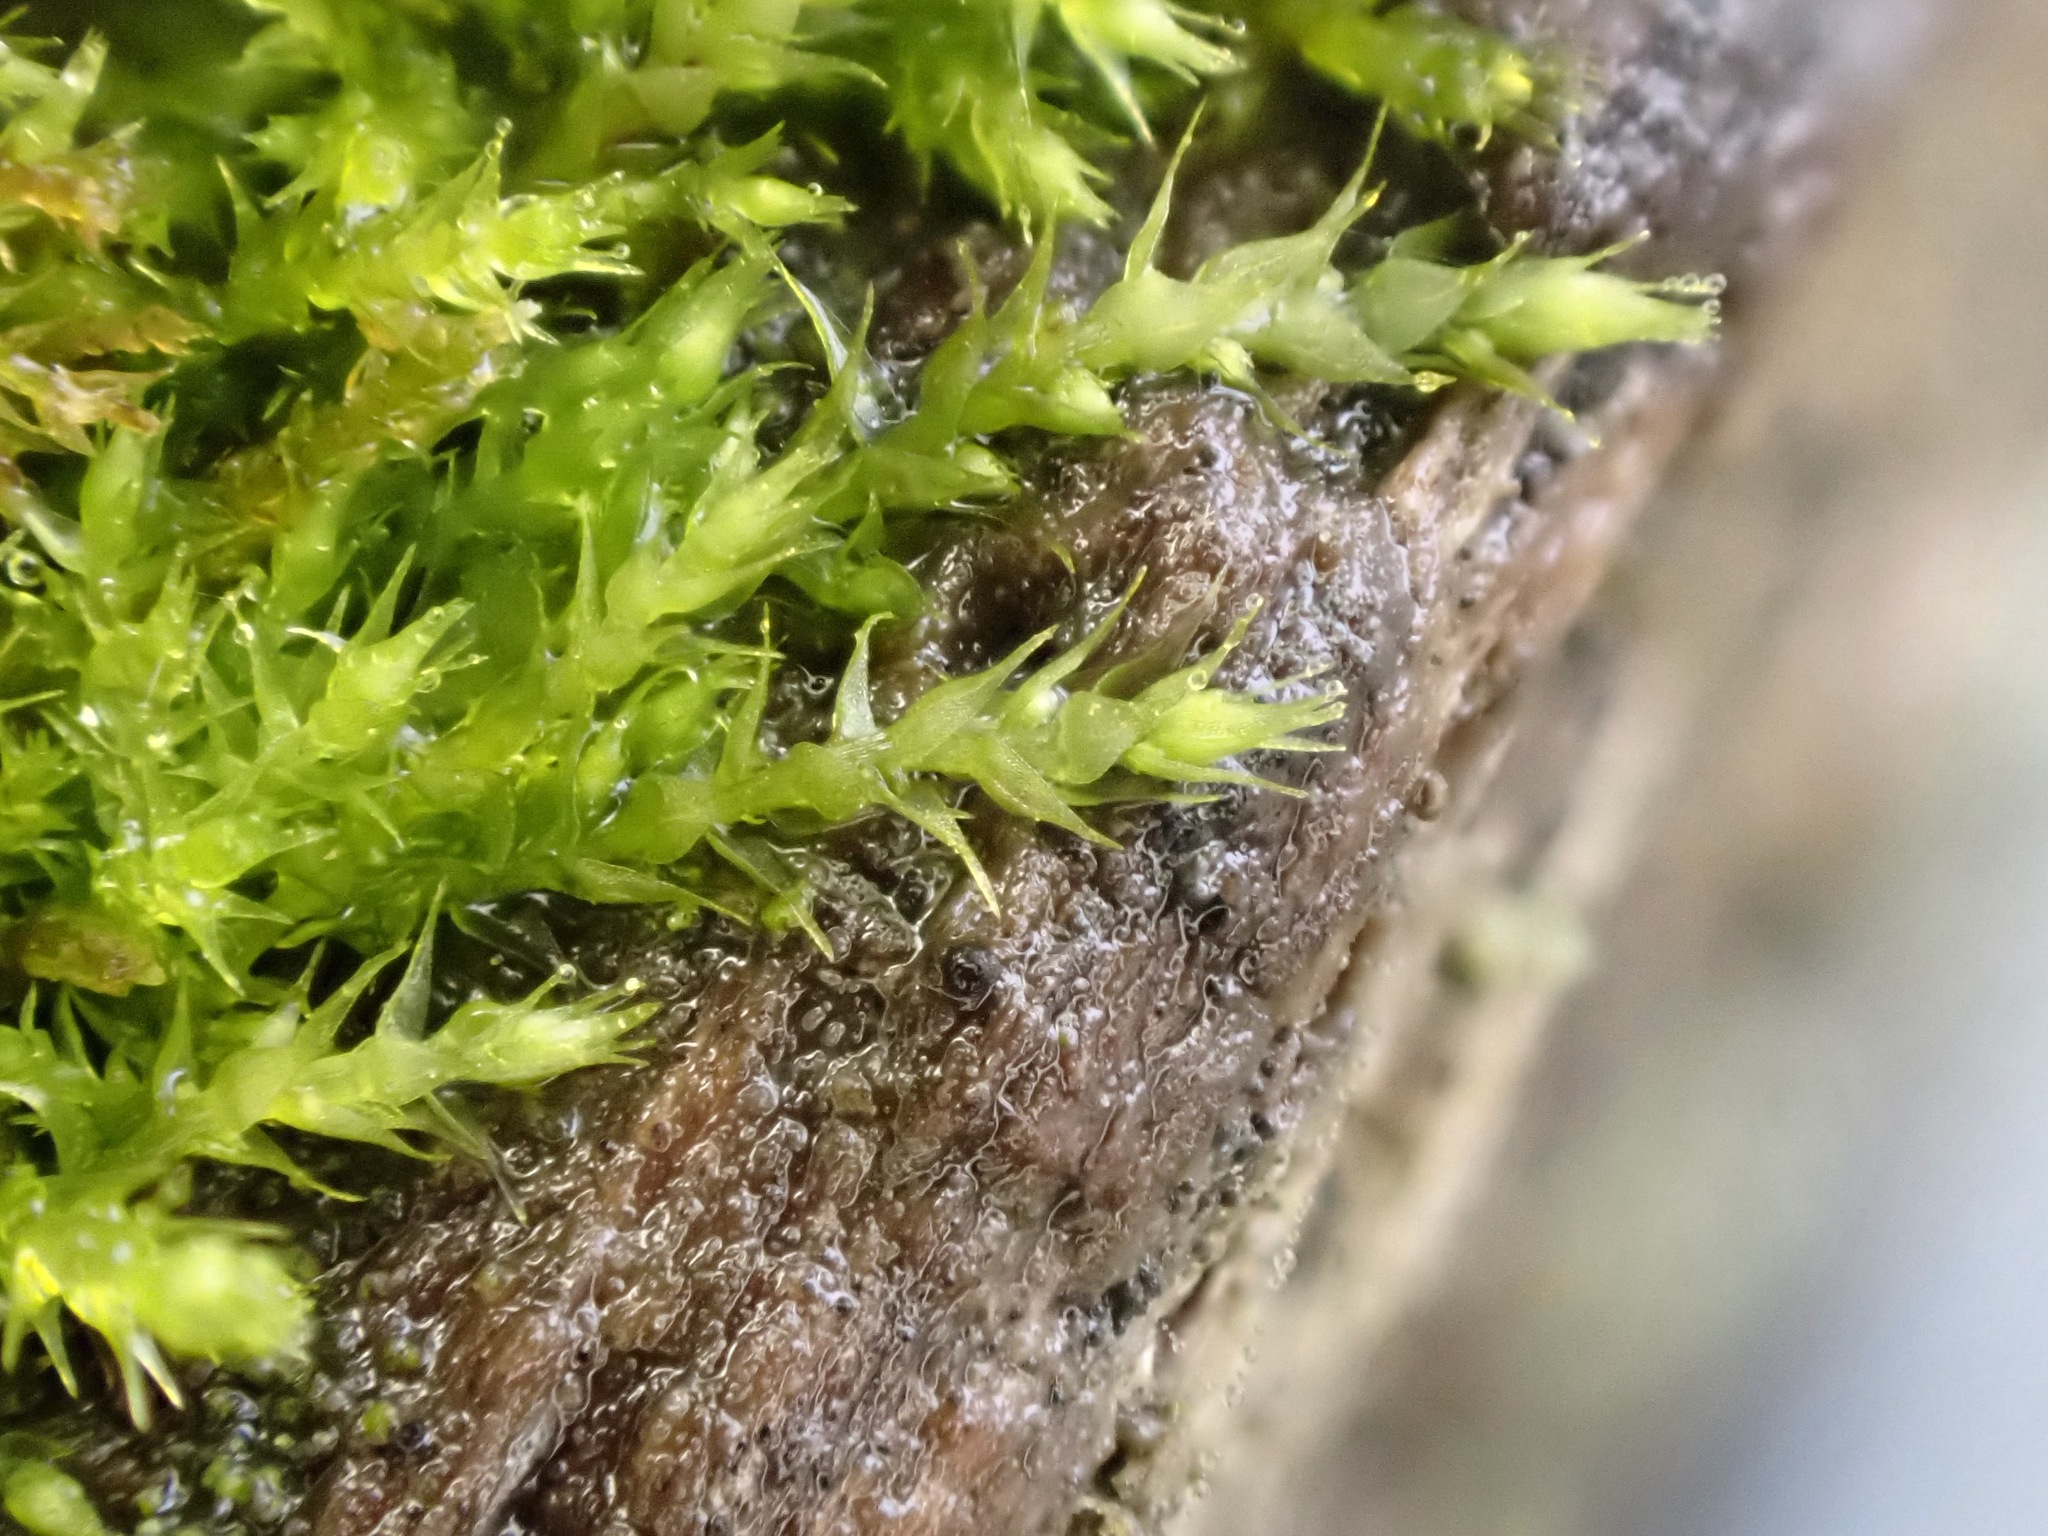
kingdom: Plantae
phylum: Bryophyta
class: Bryopsida
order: Hypnales
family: Amblystegiaceae
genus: Amblystegium
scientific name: Amblystegium serpens
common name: Jurkatzka's feather moss
